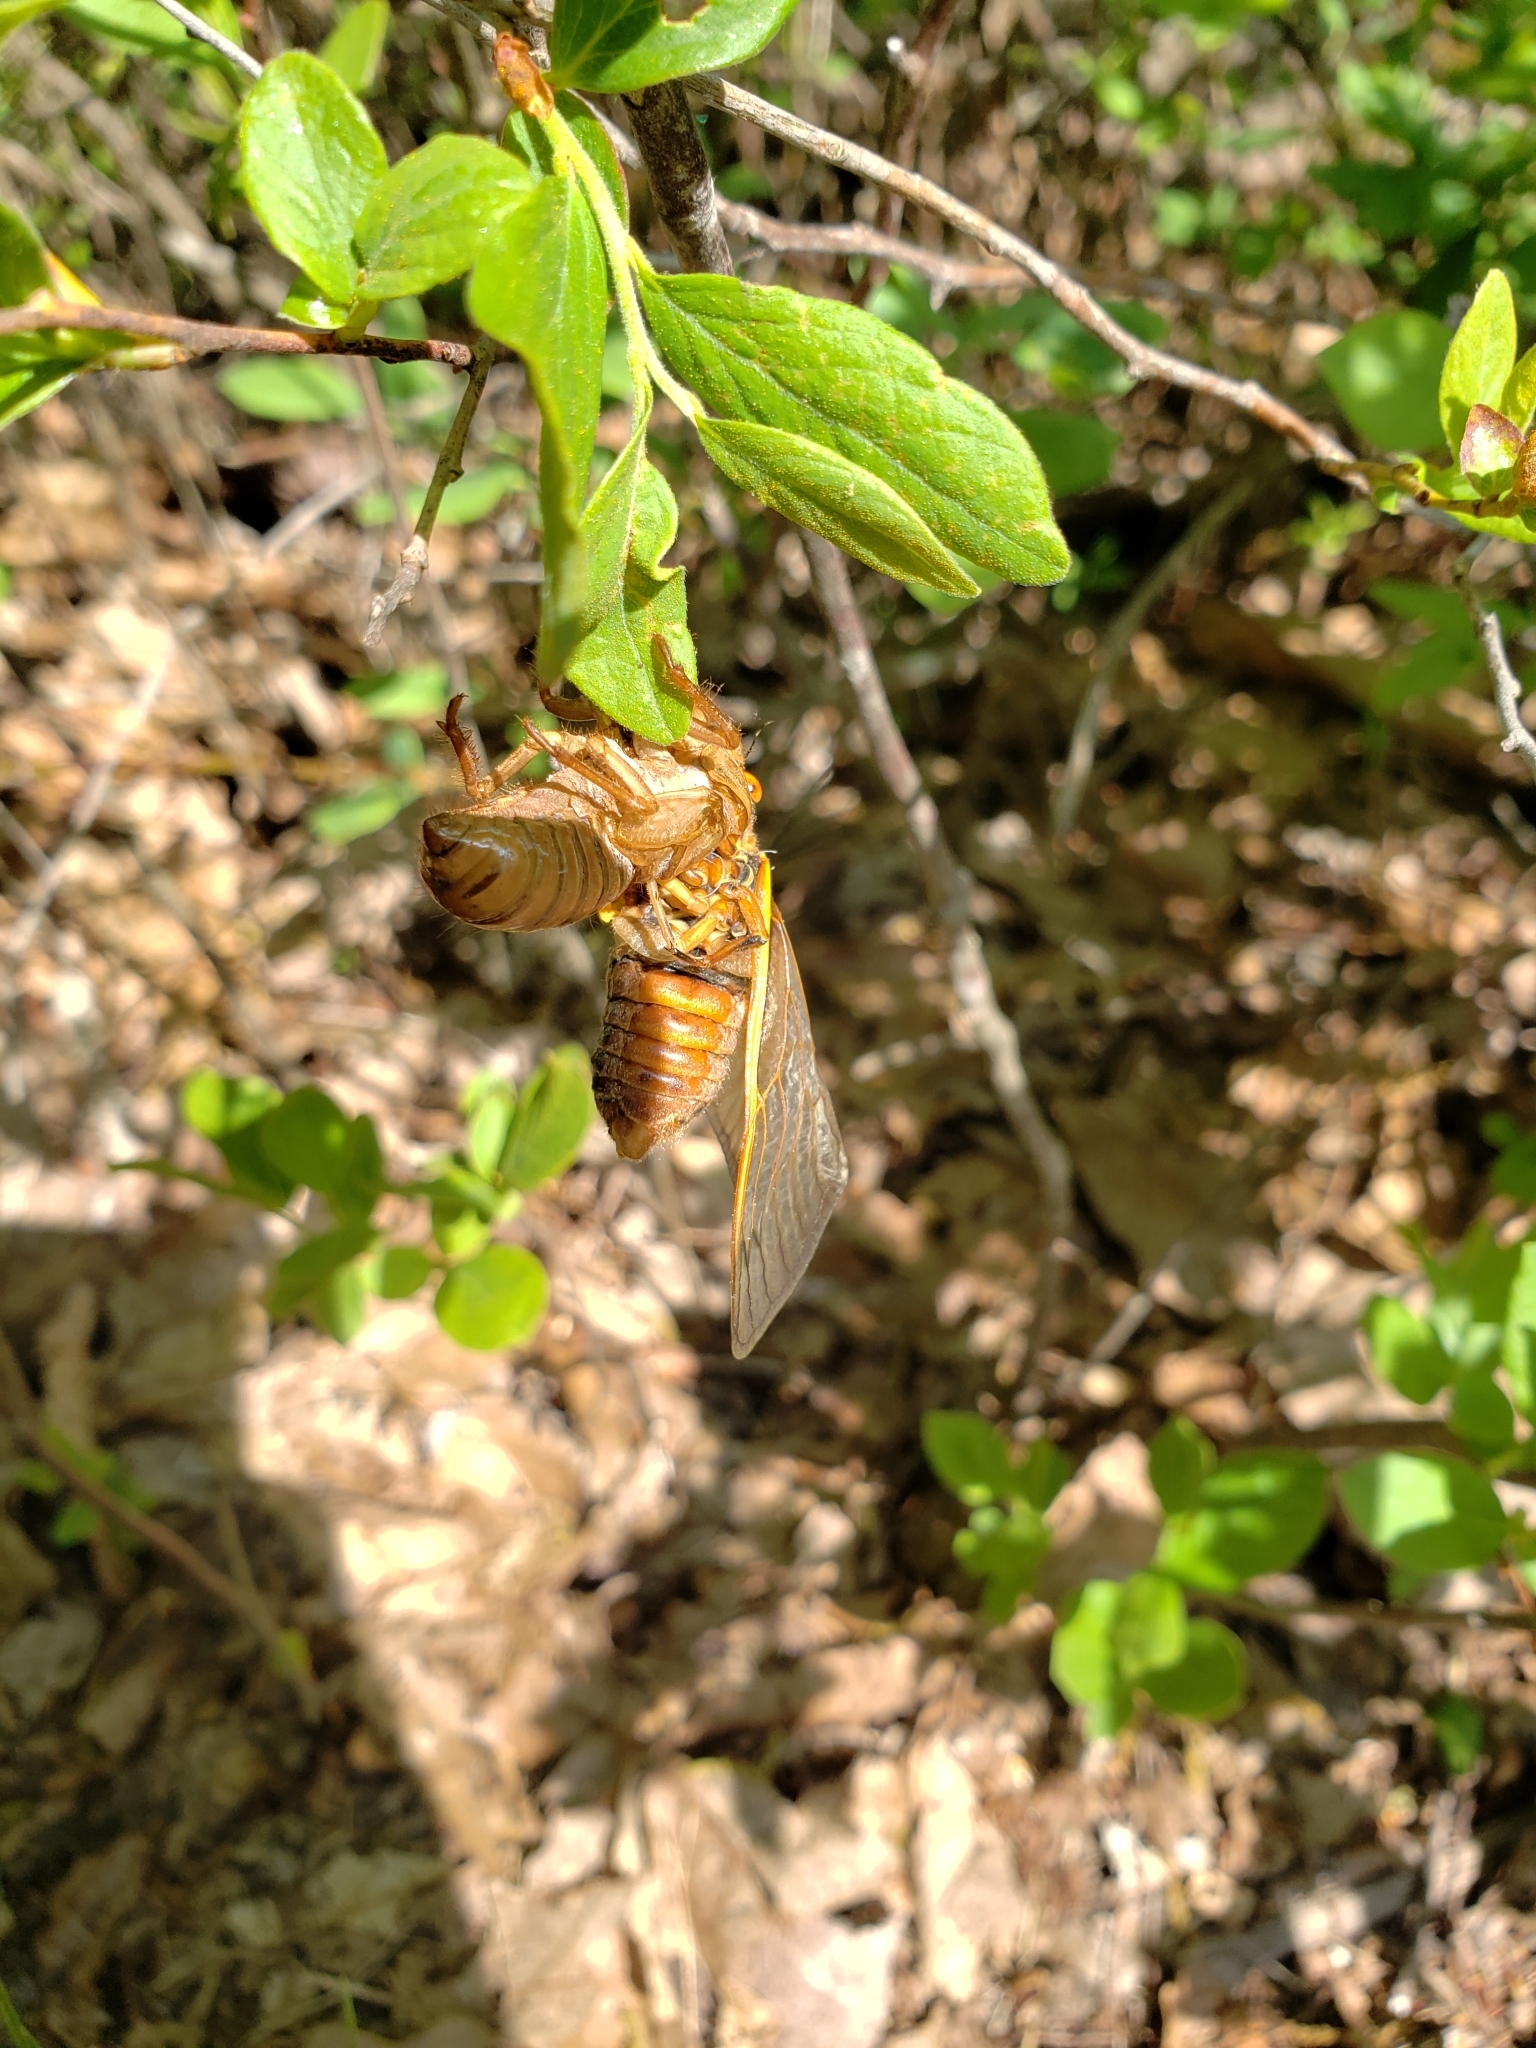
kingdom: Animalia
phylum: Arthropoda
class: Insecta
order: Hemiptera
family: Cicadidae
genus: Magicicada
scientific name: Magicicada septendecim
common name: Periodical cicada
